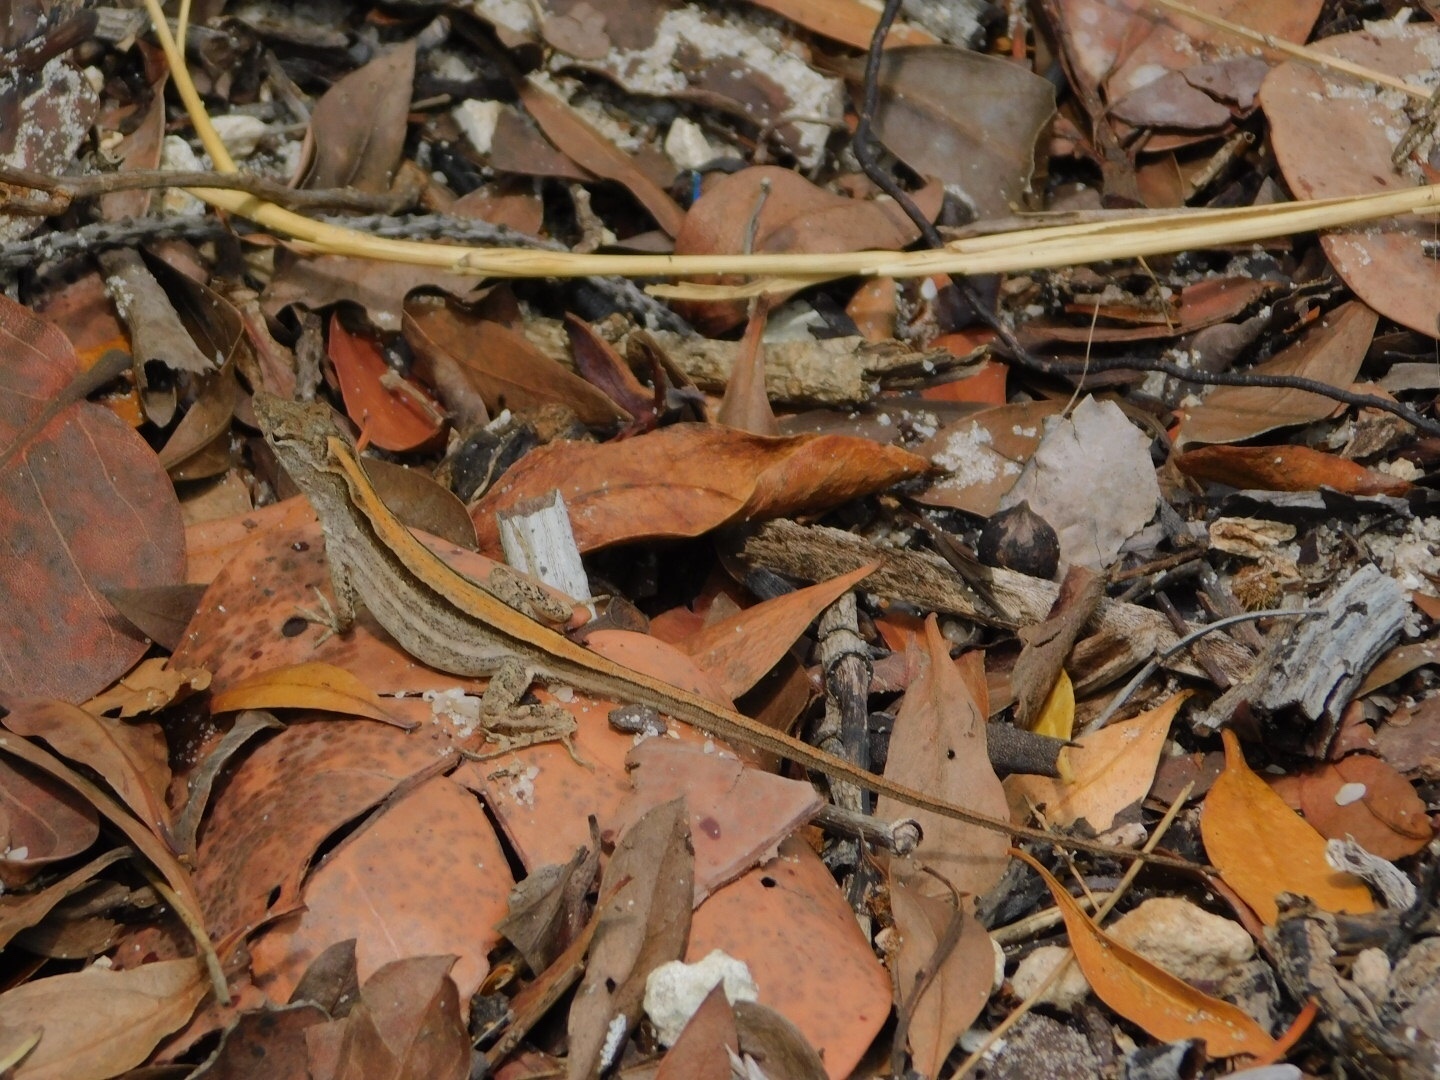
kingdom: Animalia
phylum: Chordata
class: Squamata
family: Dactyloidae
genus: Anolis
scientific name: Anolis sagrei
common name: Brown anole
